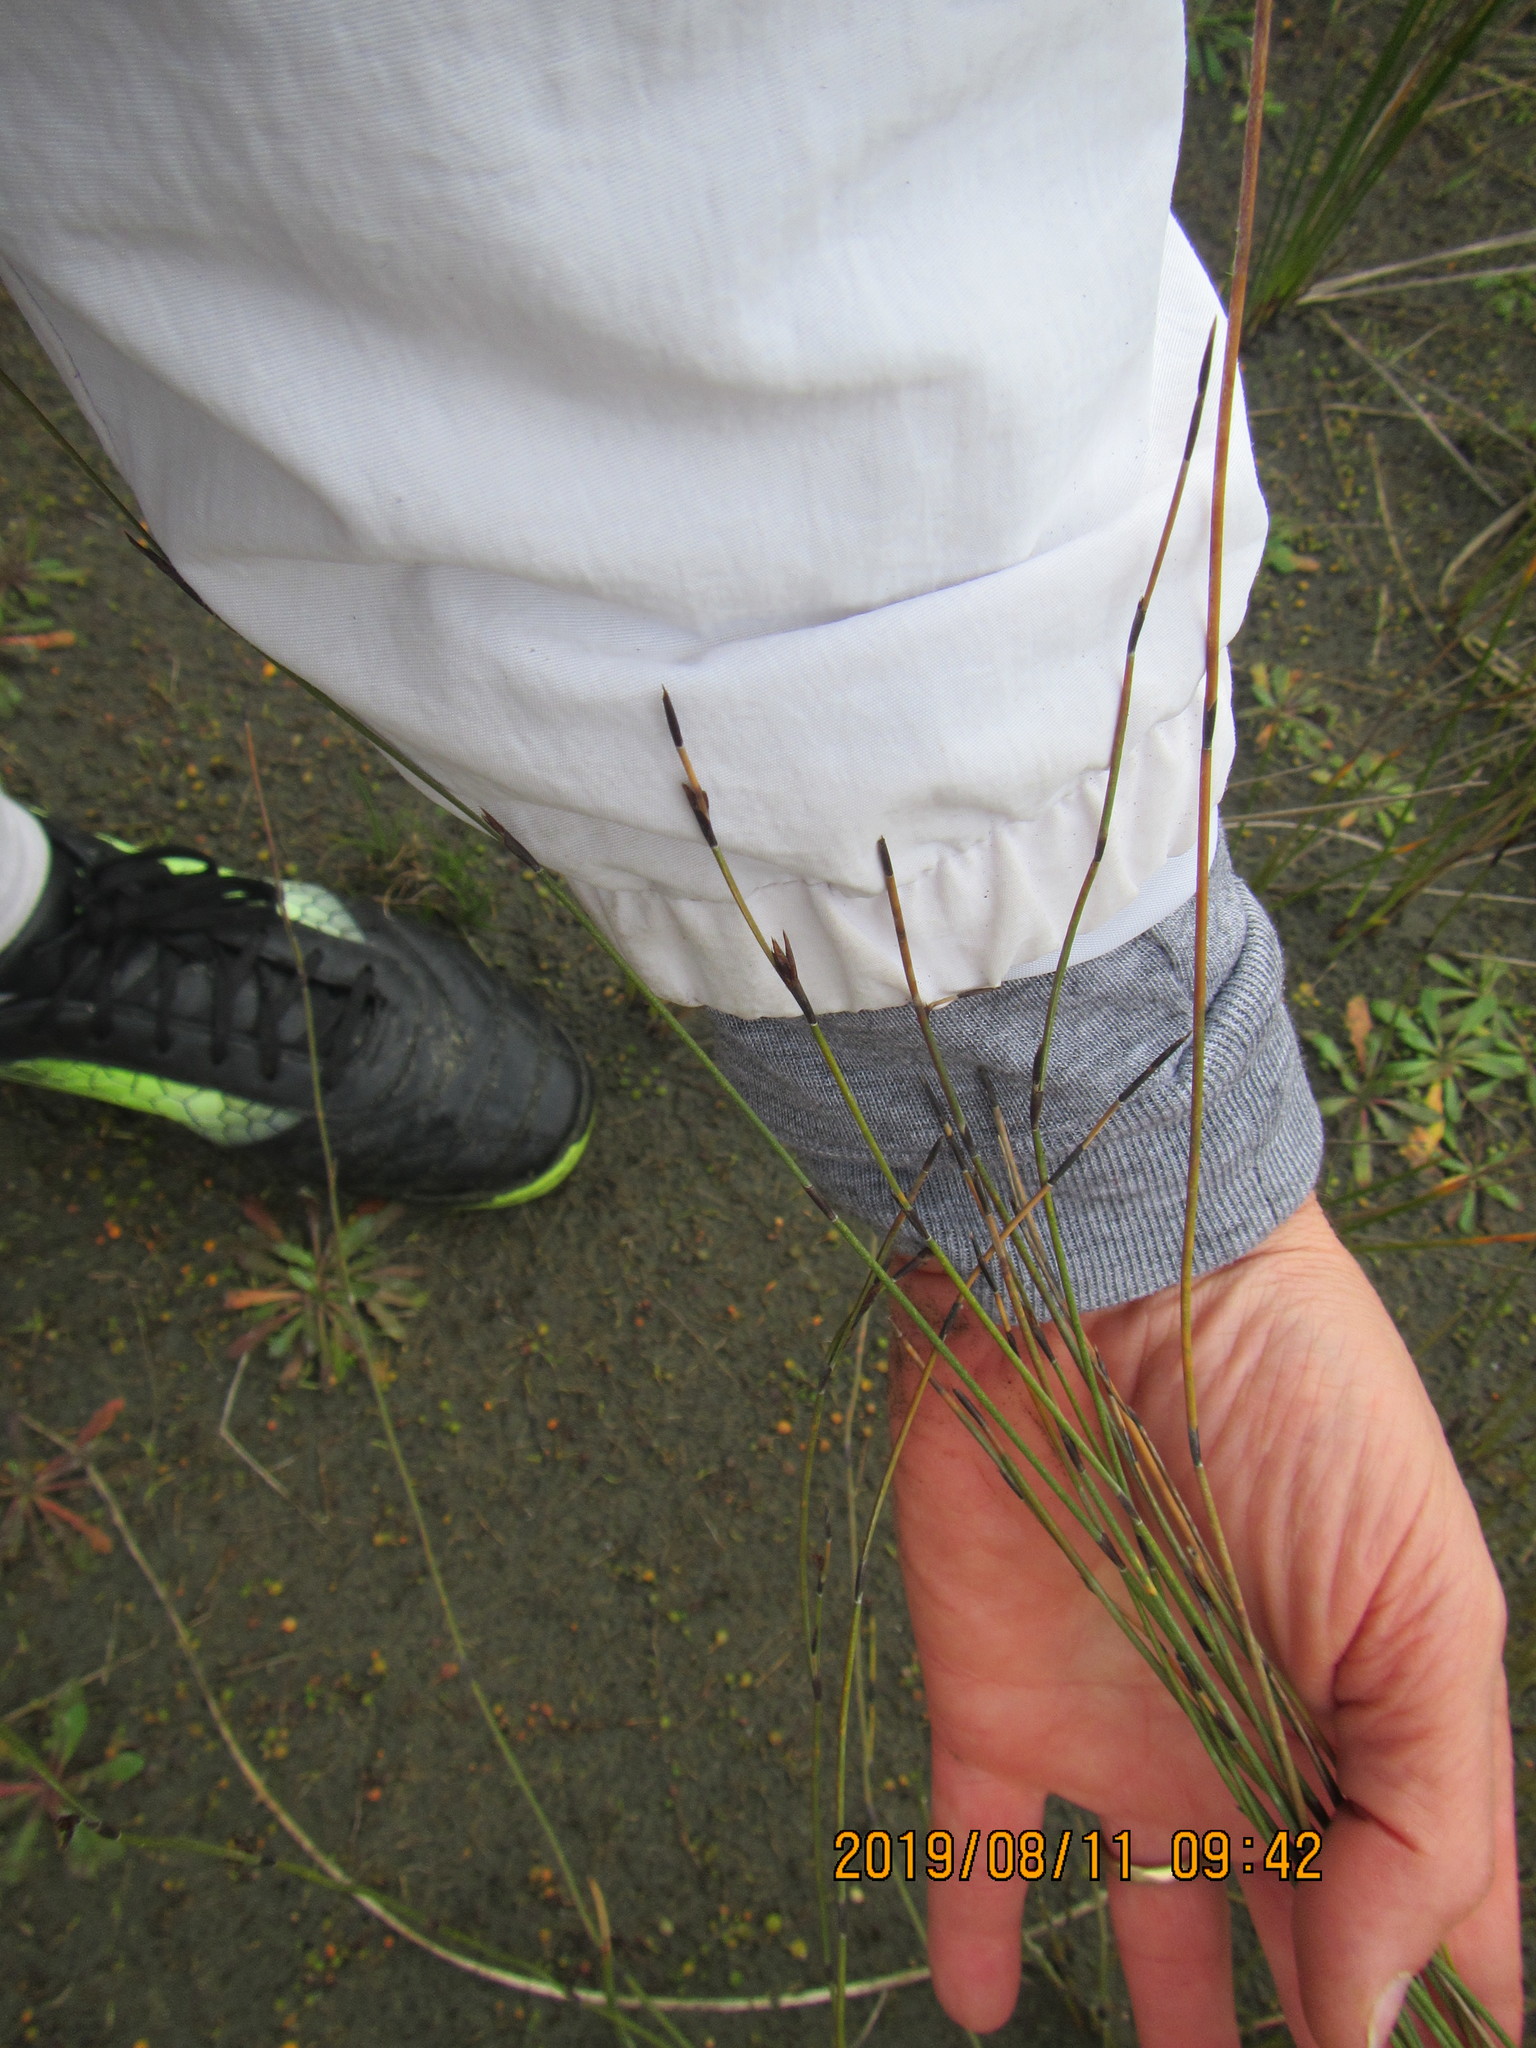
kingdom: Plantae
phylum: Tracheophyta
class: Liliopsida
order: Poales
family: Restionaceae
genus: Apodasmia
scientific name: Apodasmia similis
